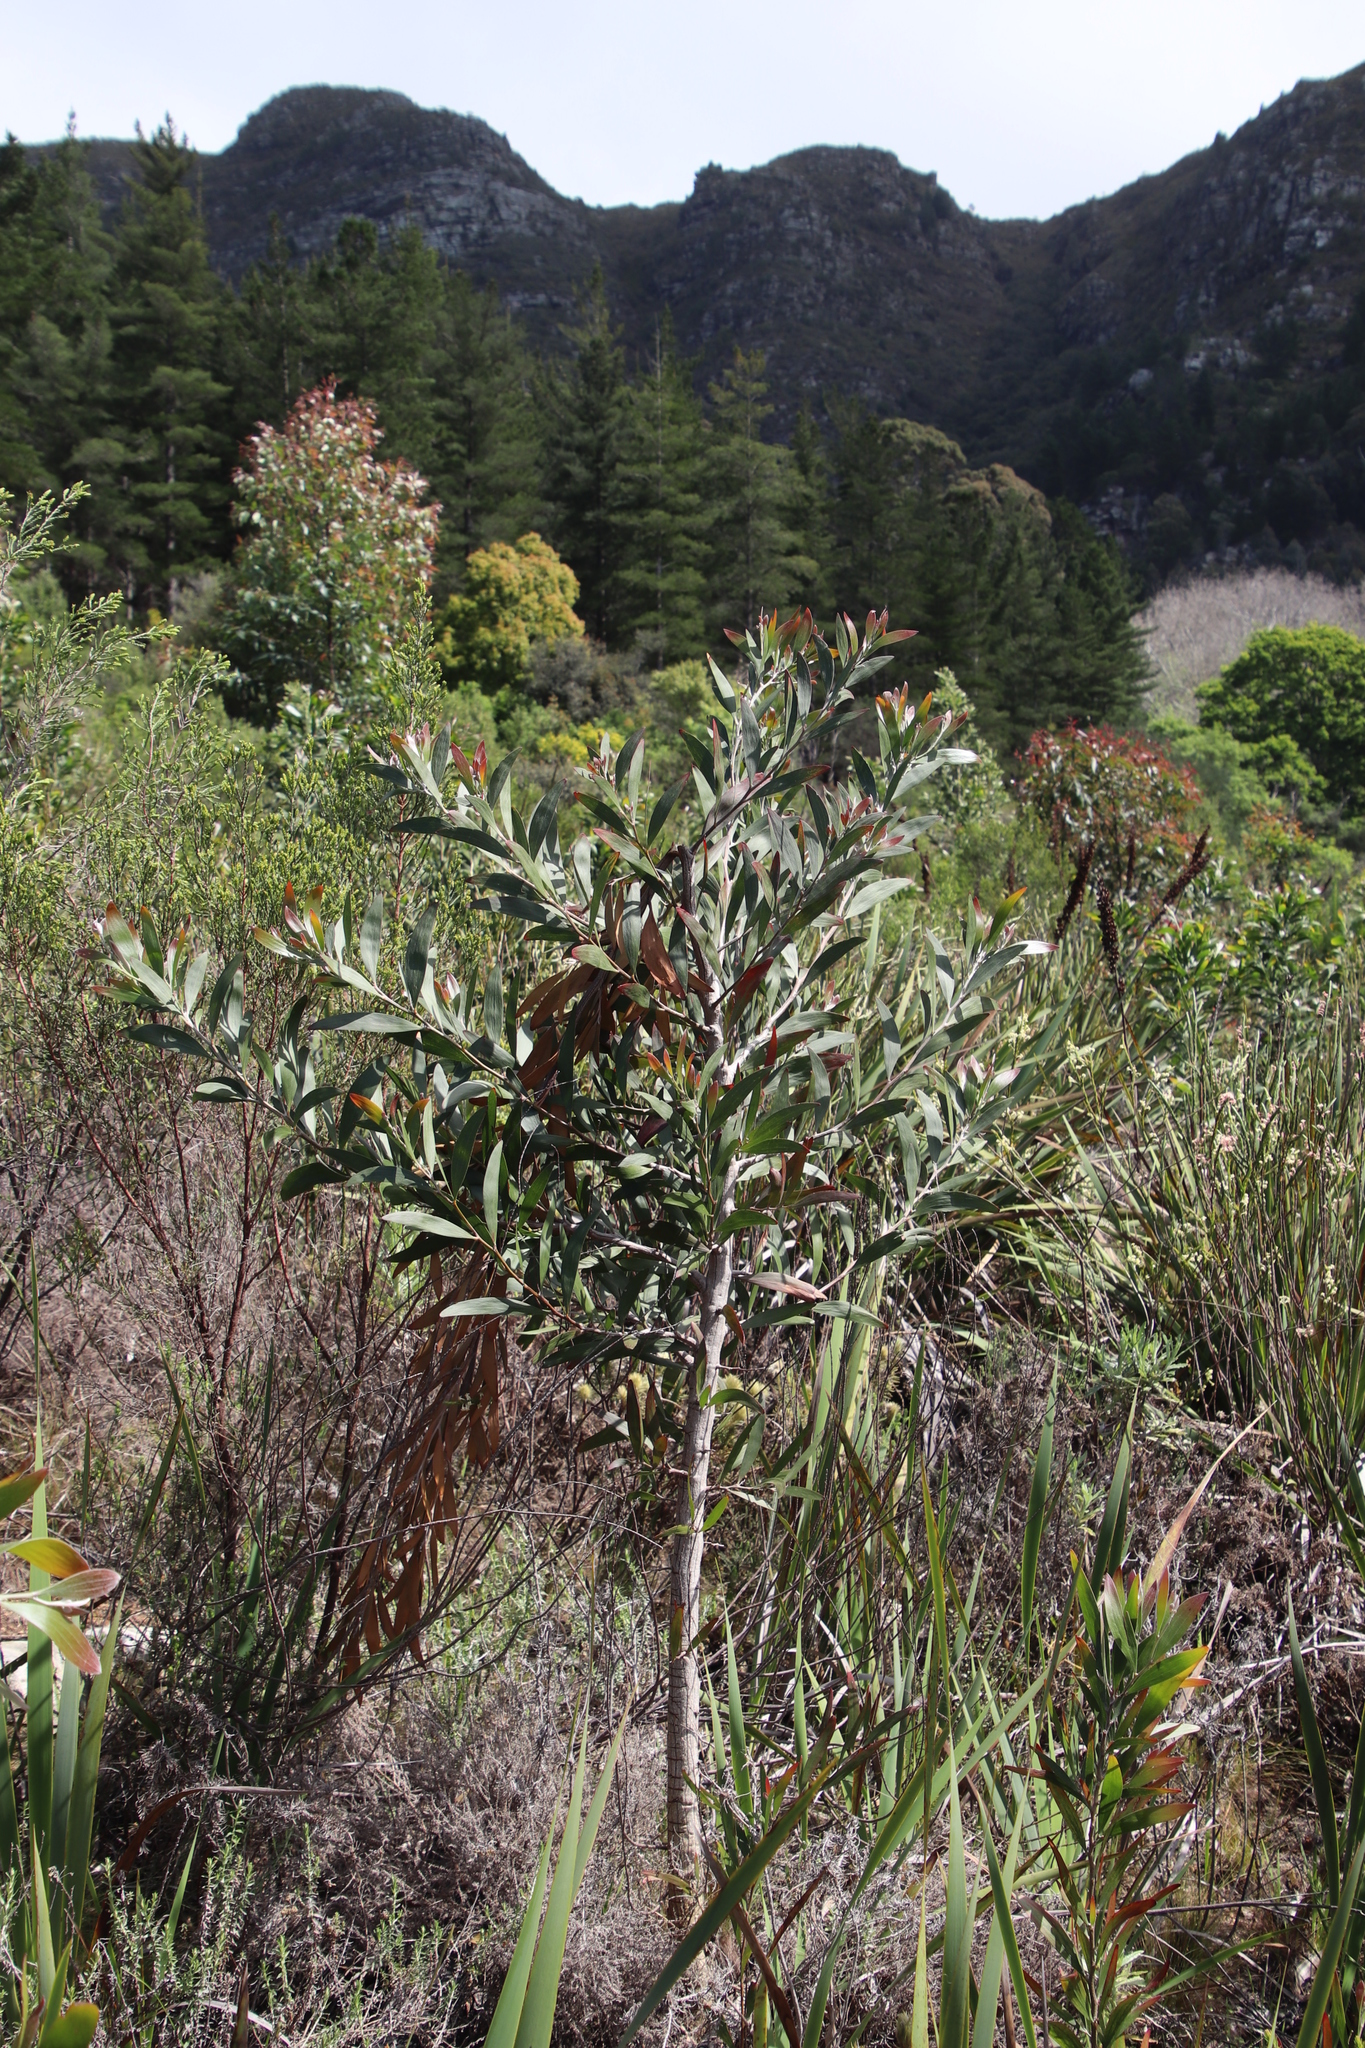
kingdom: Plantae
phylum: Tracheophyta
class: Magnoliopsida
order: Fabales
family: Fabaceae
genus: Acacia
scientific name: Acacia melanoxylon
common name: Blackwood
